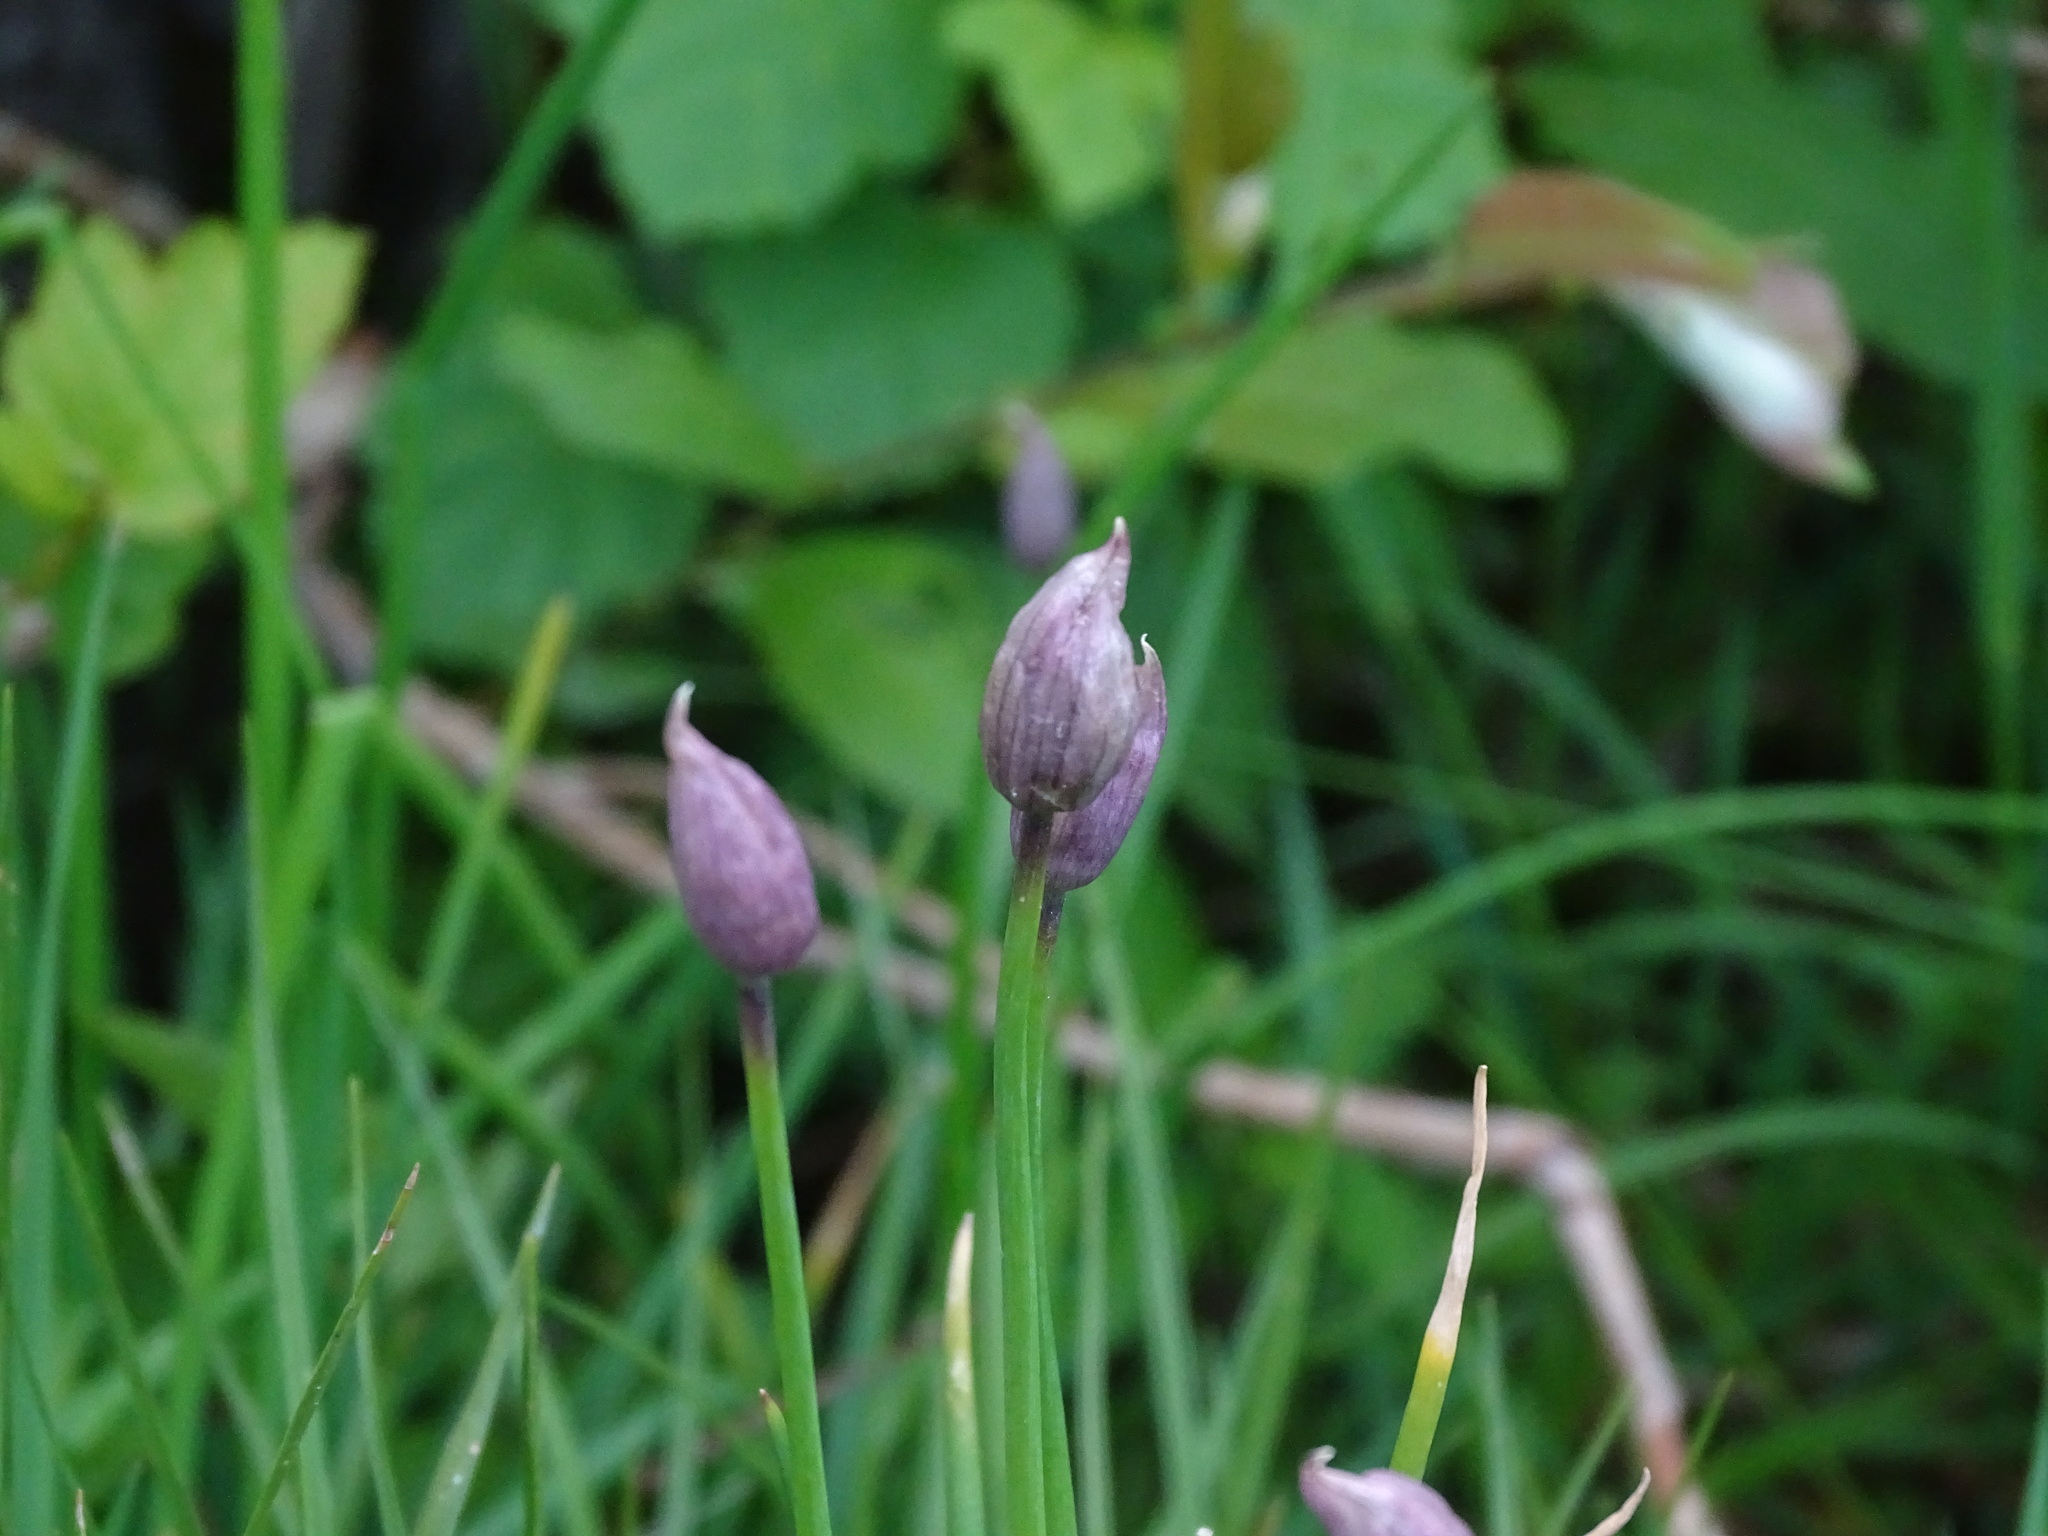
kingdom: Plantae
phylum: Tracheophyta
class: Liliopsida
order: Asparagales
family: Amaryllidaceae
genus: Allium
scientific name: Allium schoenoprasum
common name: Chives
